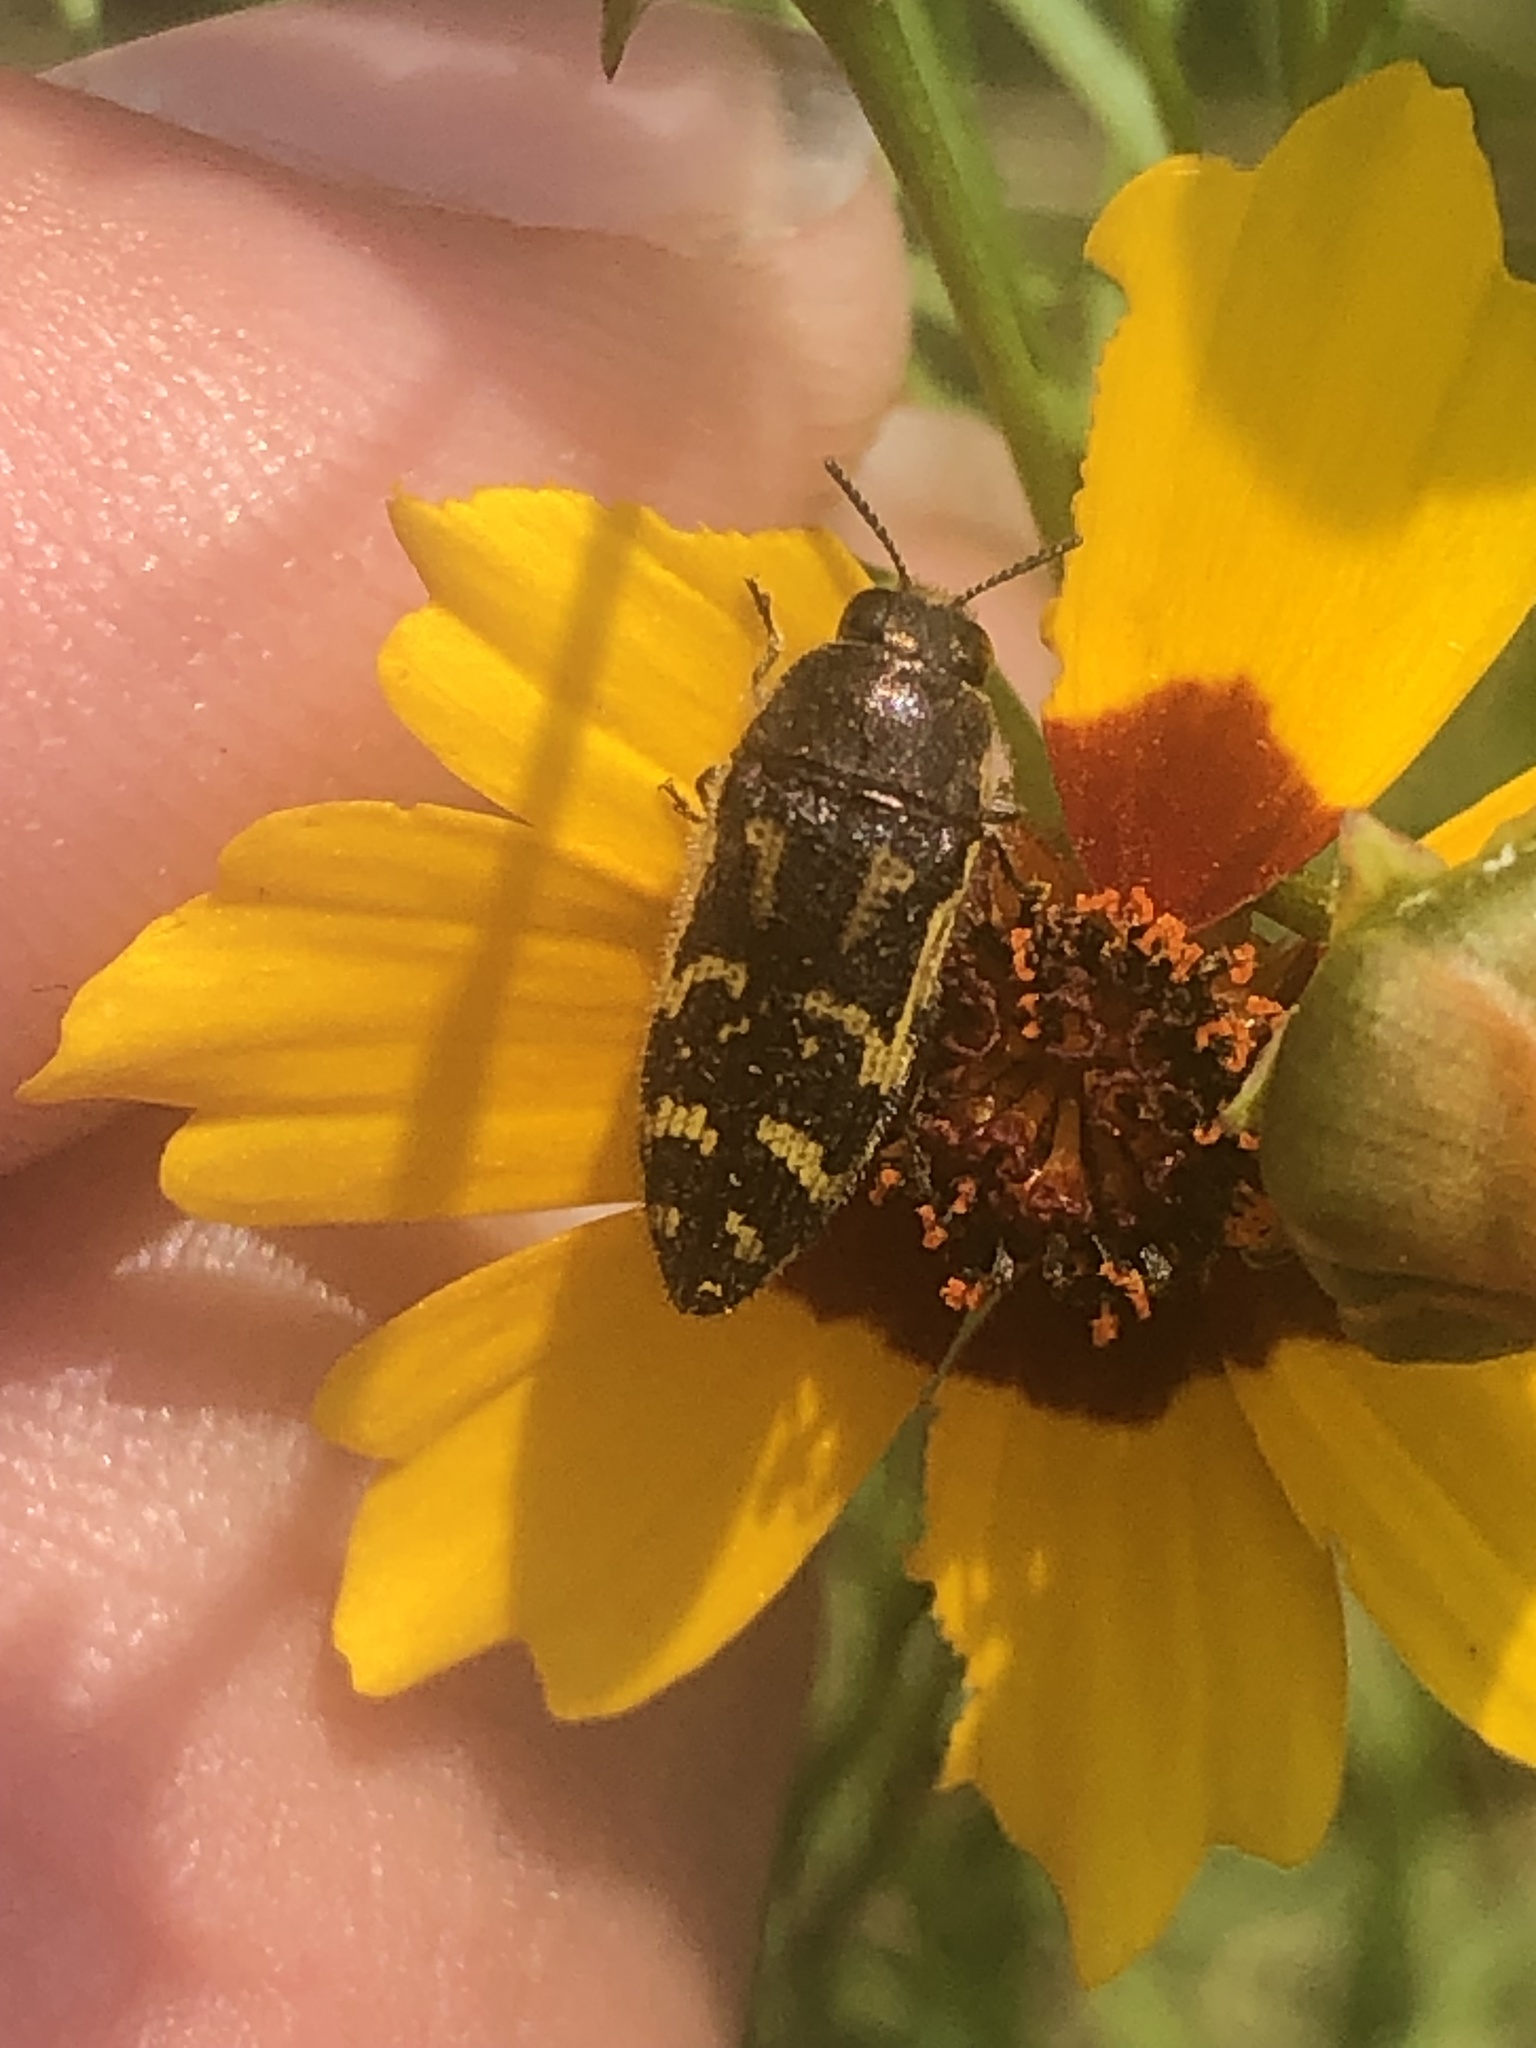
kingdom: Animalia
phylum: Arthropoda
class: Insecta
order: Coleoptera
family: Buprestidae
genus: Acmaeodera
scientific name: Acmaeodera pulchella
